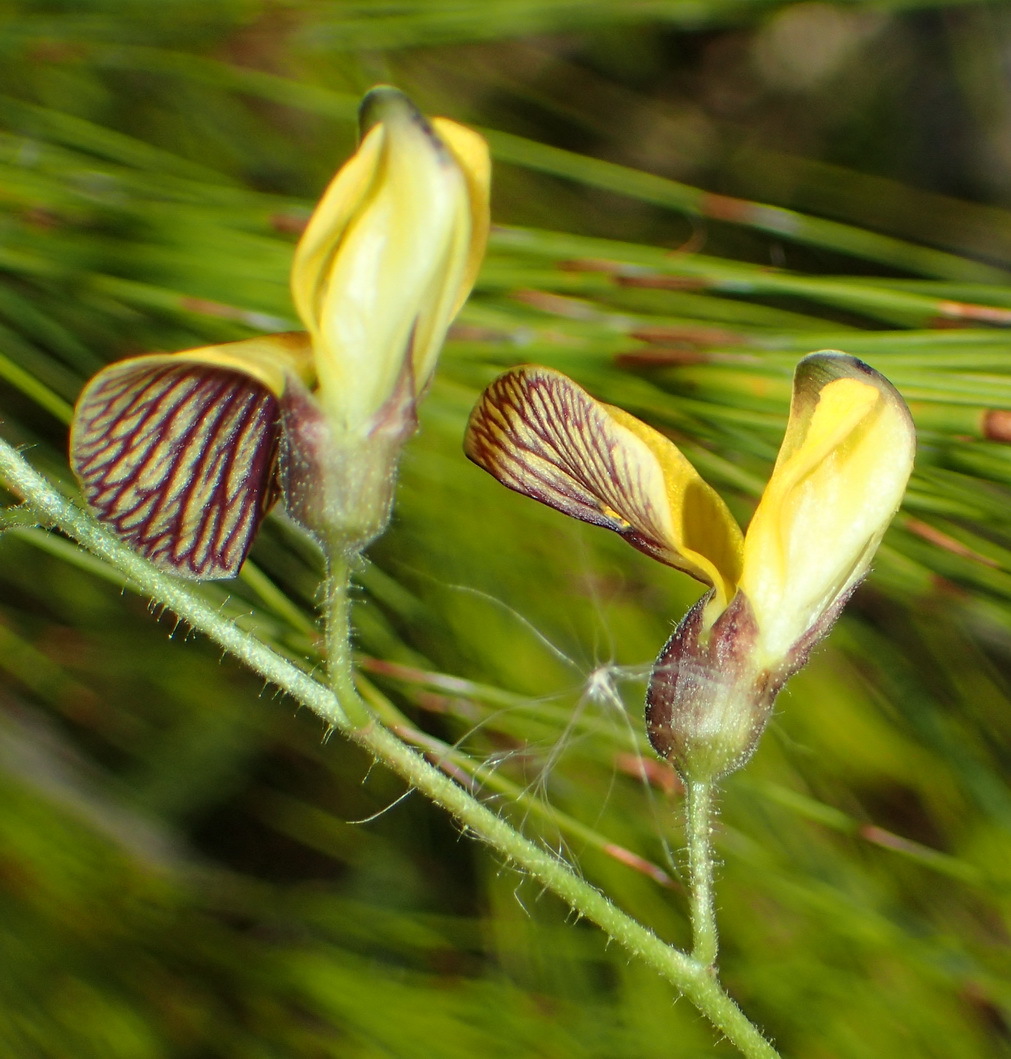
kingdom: Plantae
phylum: Tracheophyta
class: Magnoliopsida
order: Fabales
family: Fabaceae
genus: Rhynchosia
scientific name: Rhynchosia caribaea
